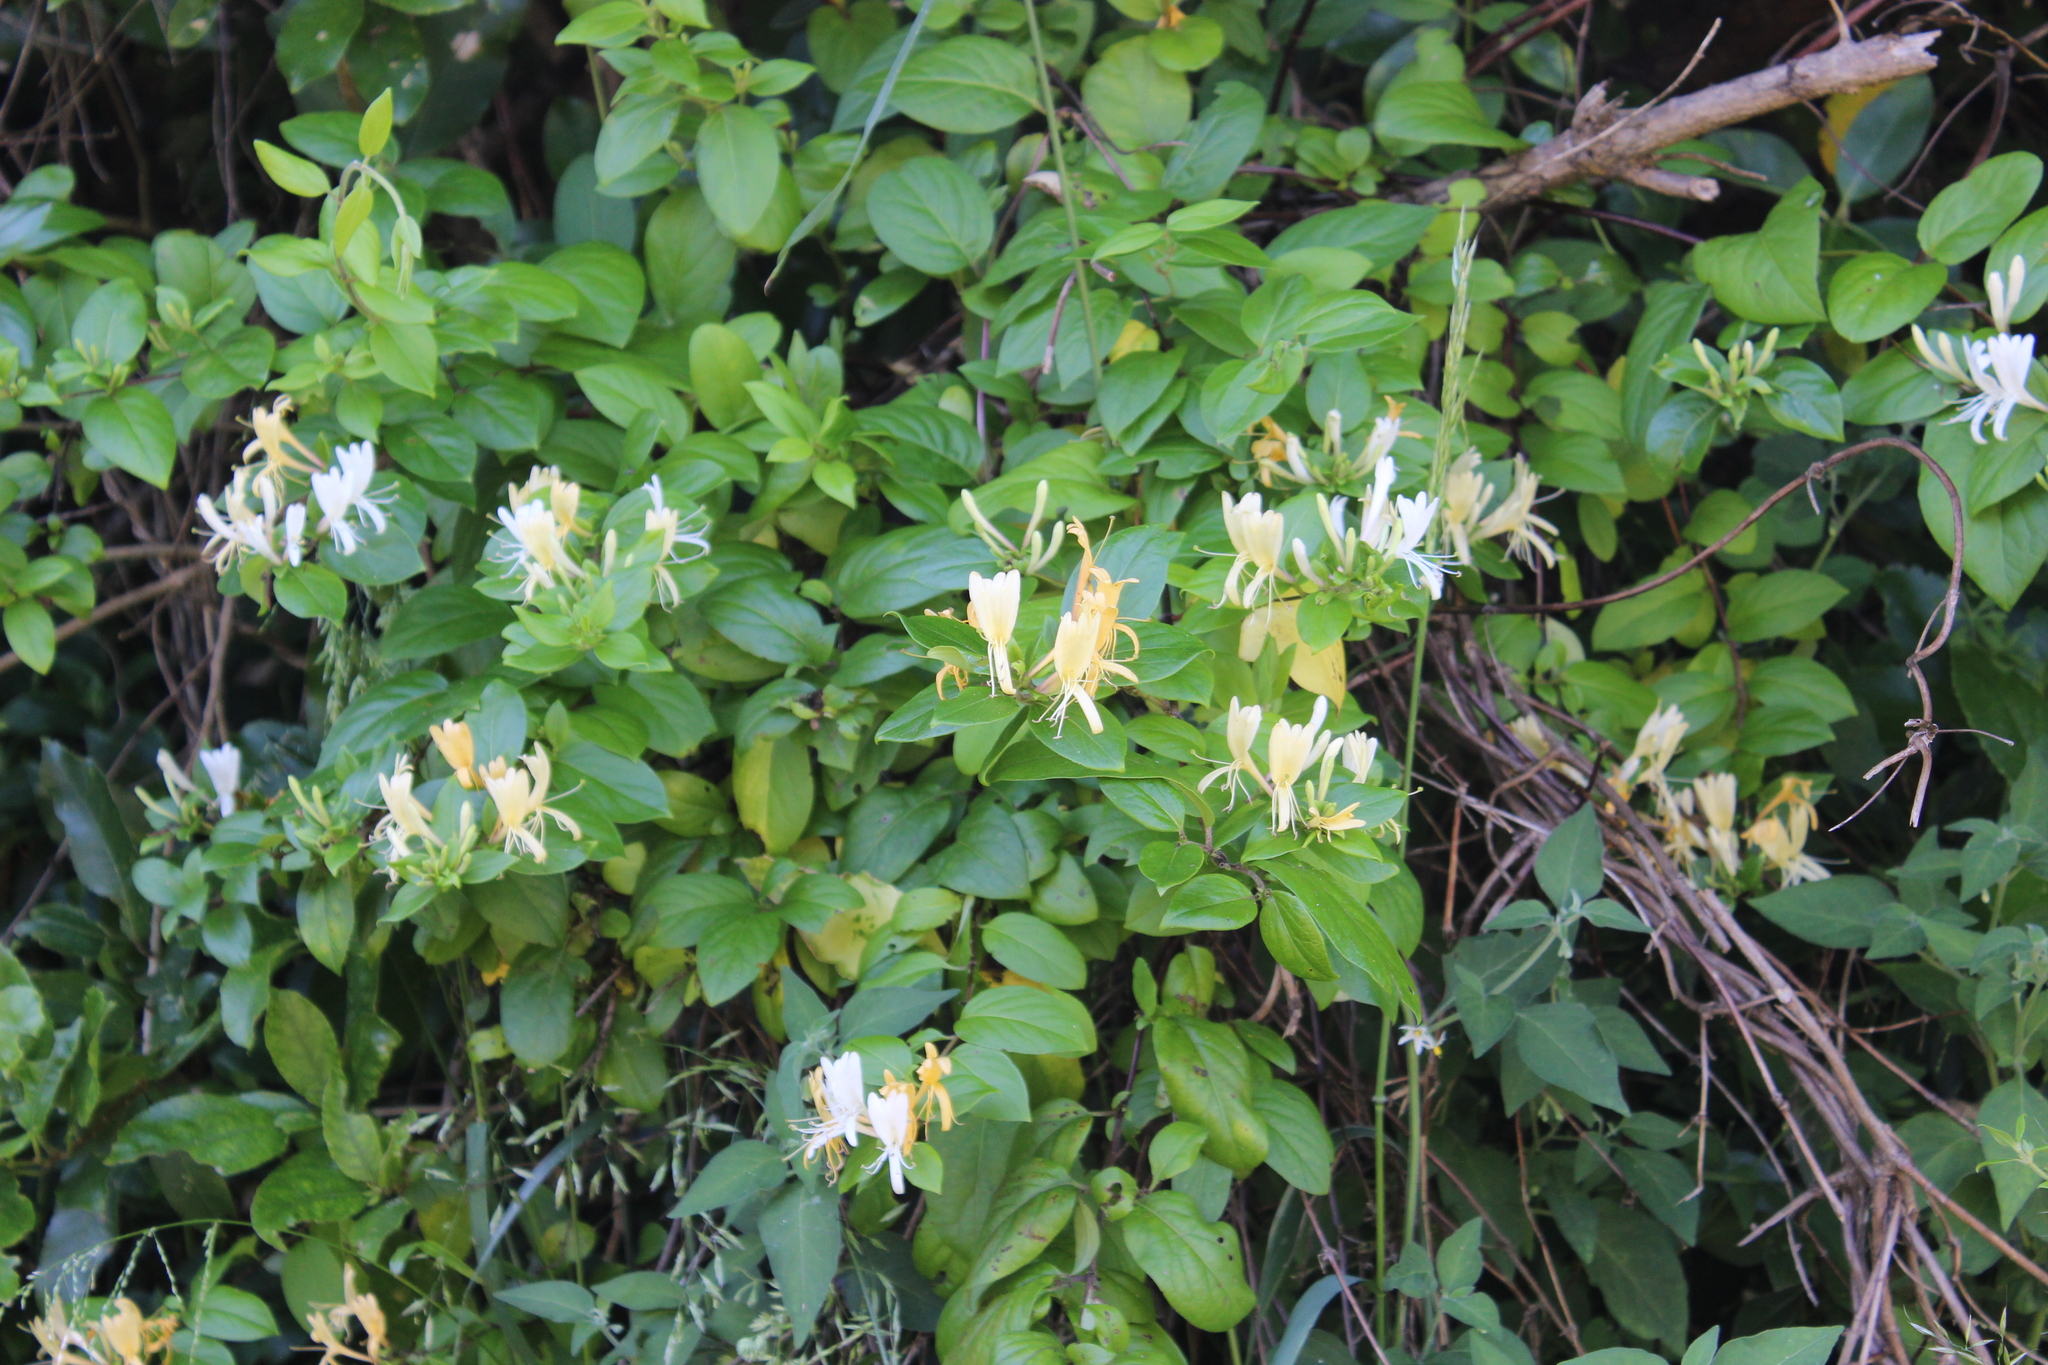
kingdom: Plantae
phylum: Tracheophyta
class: Magnoliopsida
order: Dipsacales
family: Caprifoliaceae
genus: Lonicera
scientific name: Lonicera japonica
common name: Japanese honeysuckle
